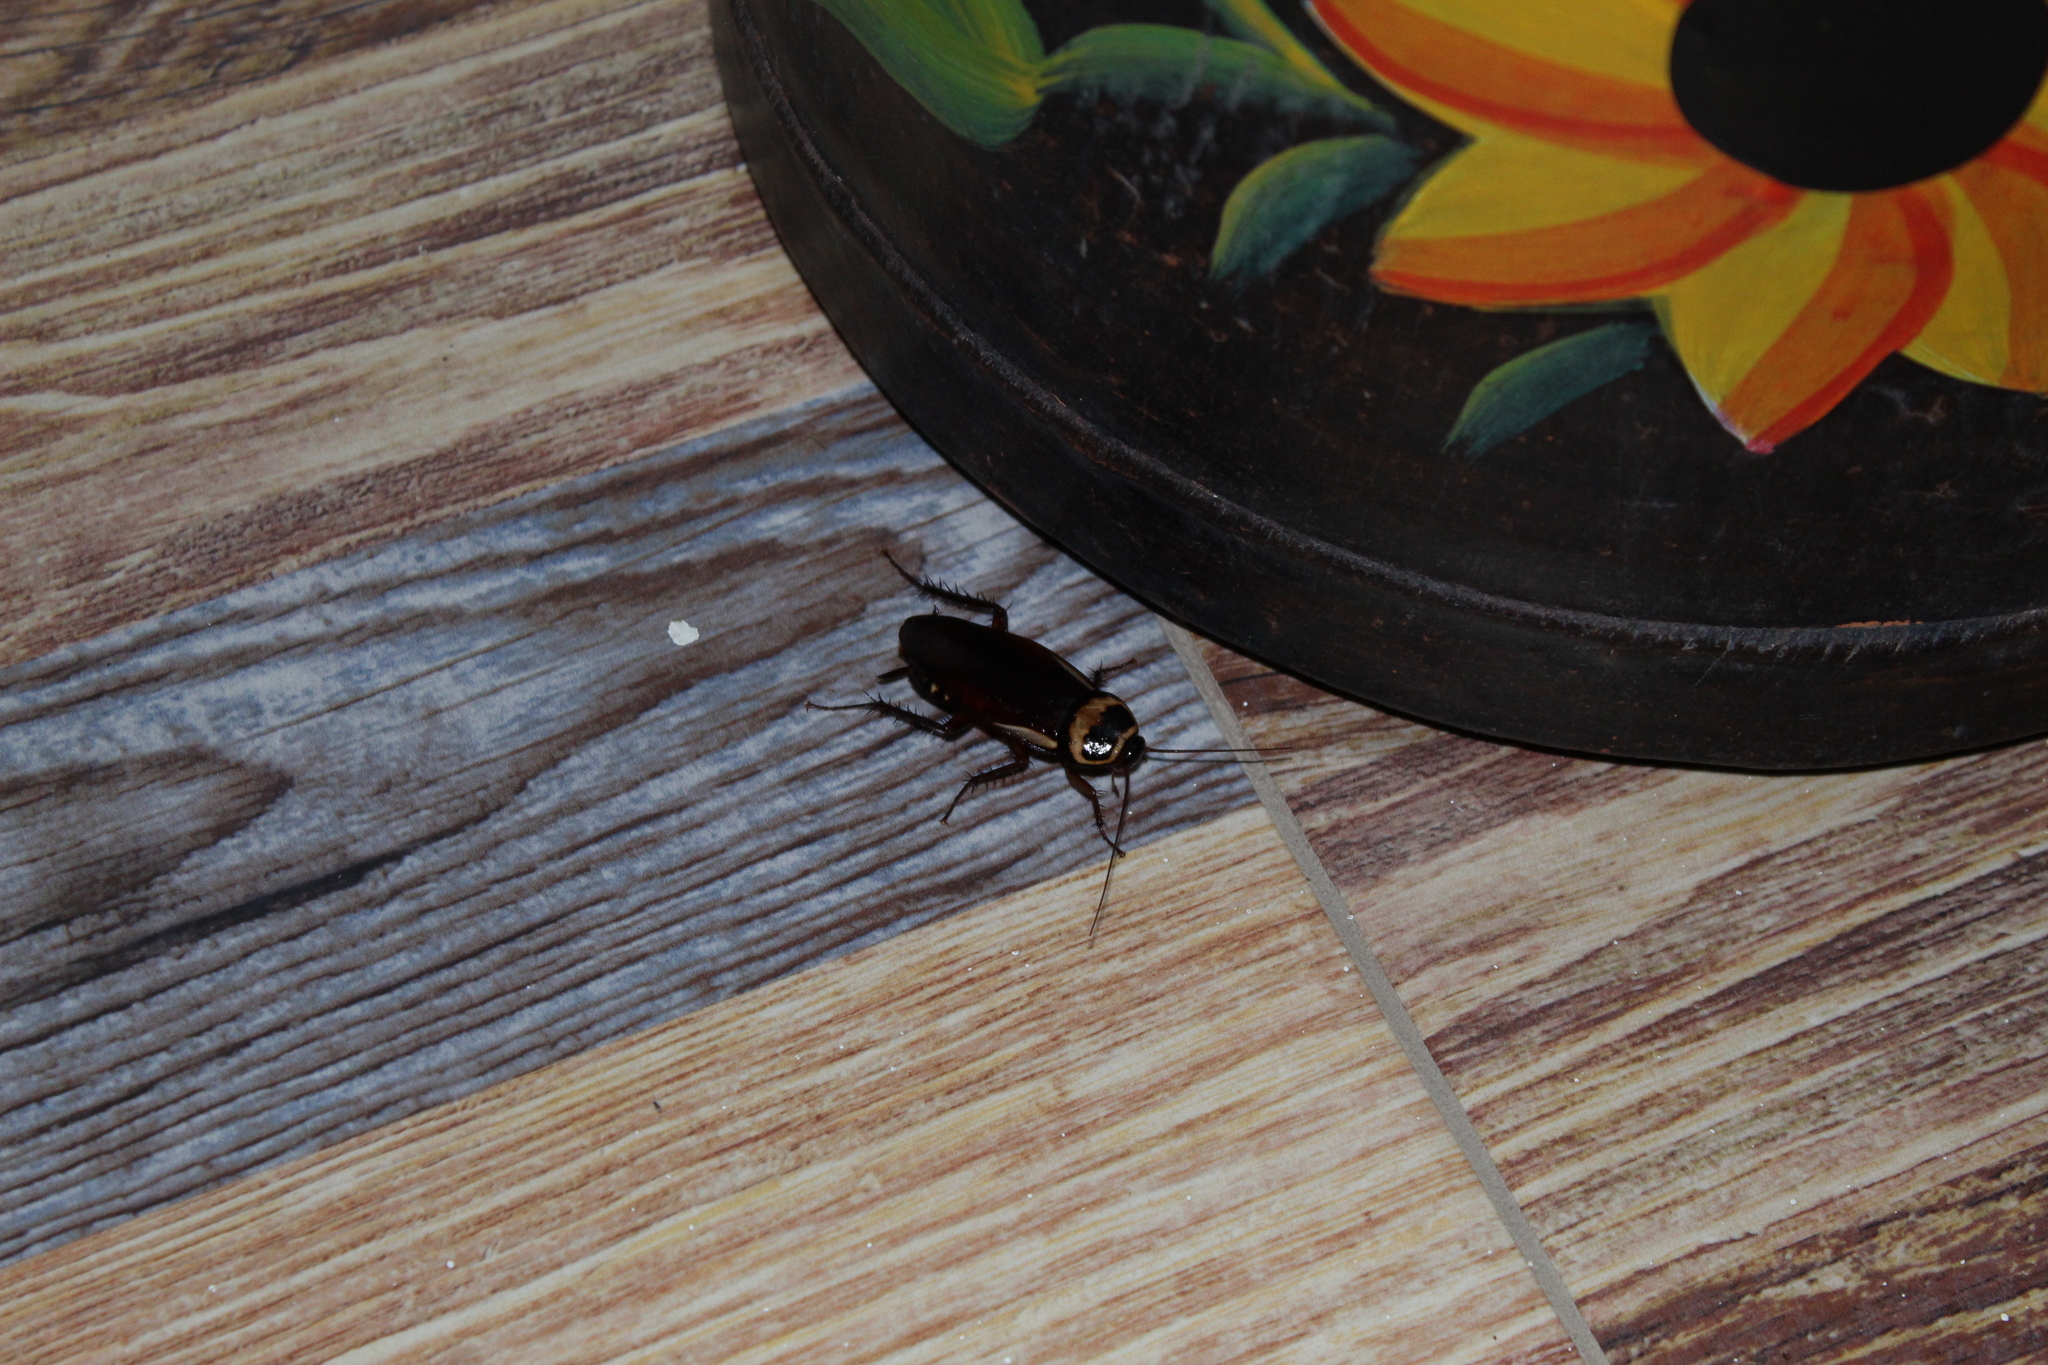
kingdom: Animalia
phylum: Arthropoda
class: Insecta
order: Blattodea
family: Blattidae
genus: Periplaneta
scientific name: Periplaneta australasiae
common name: Australian cockroach
